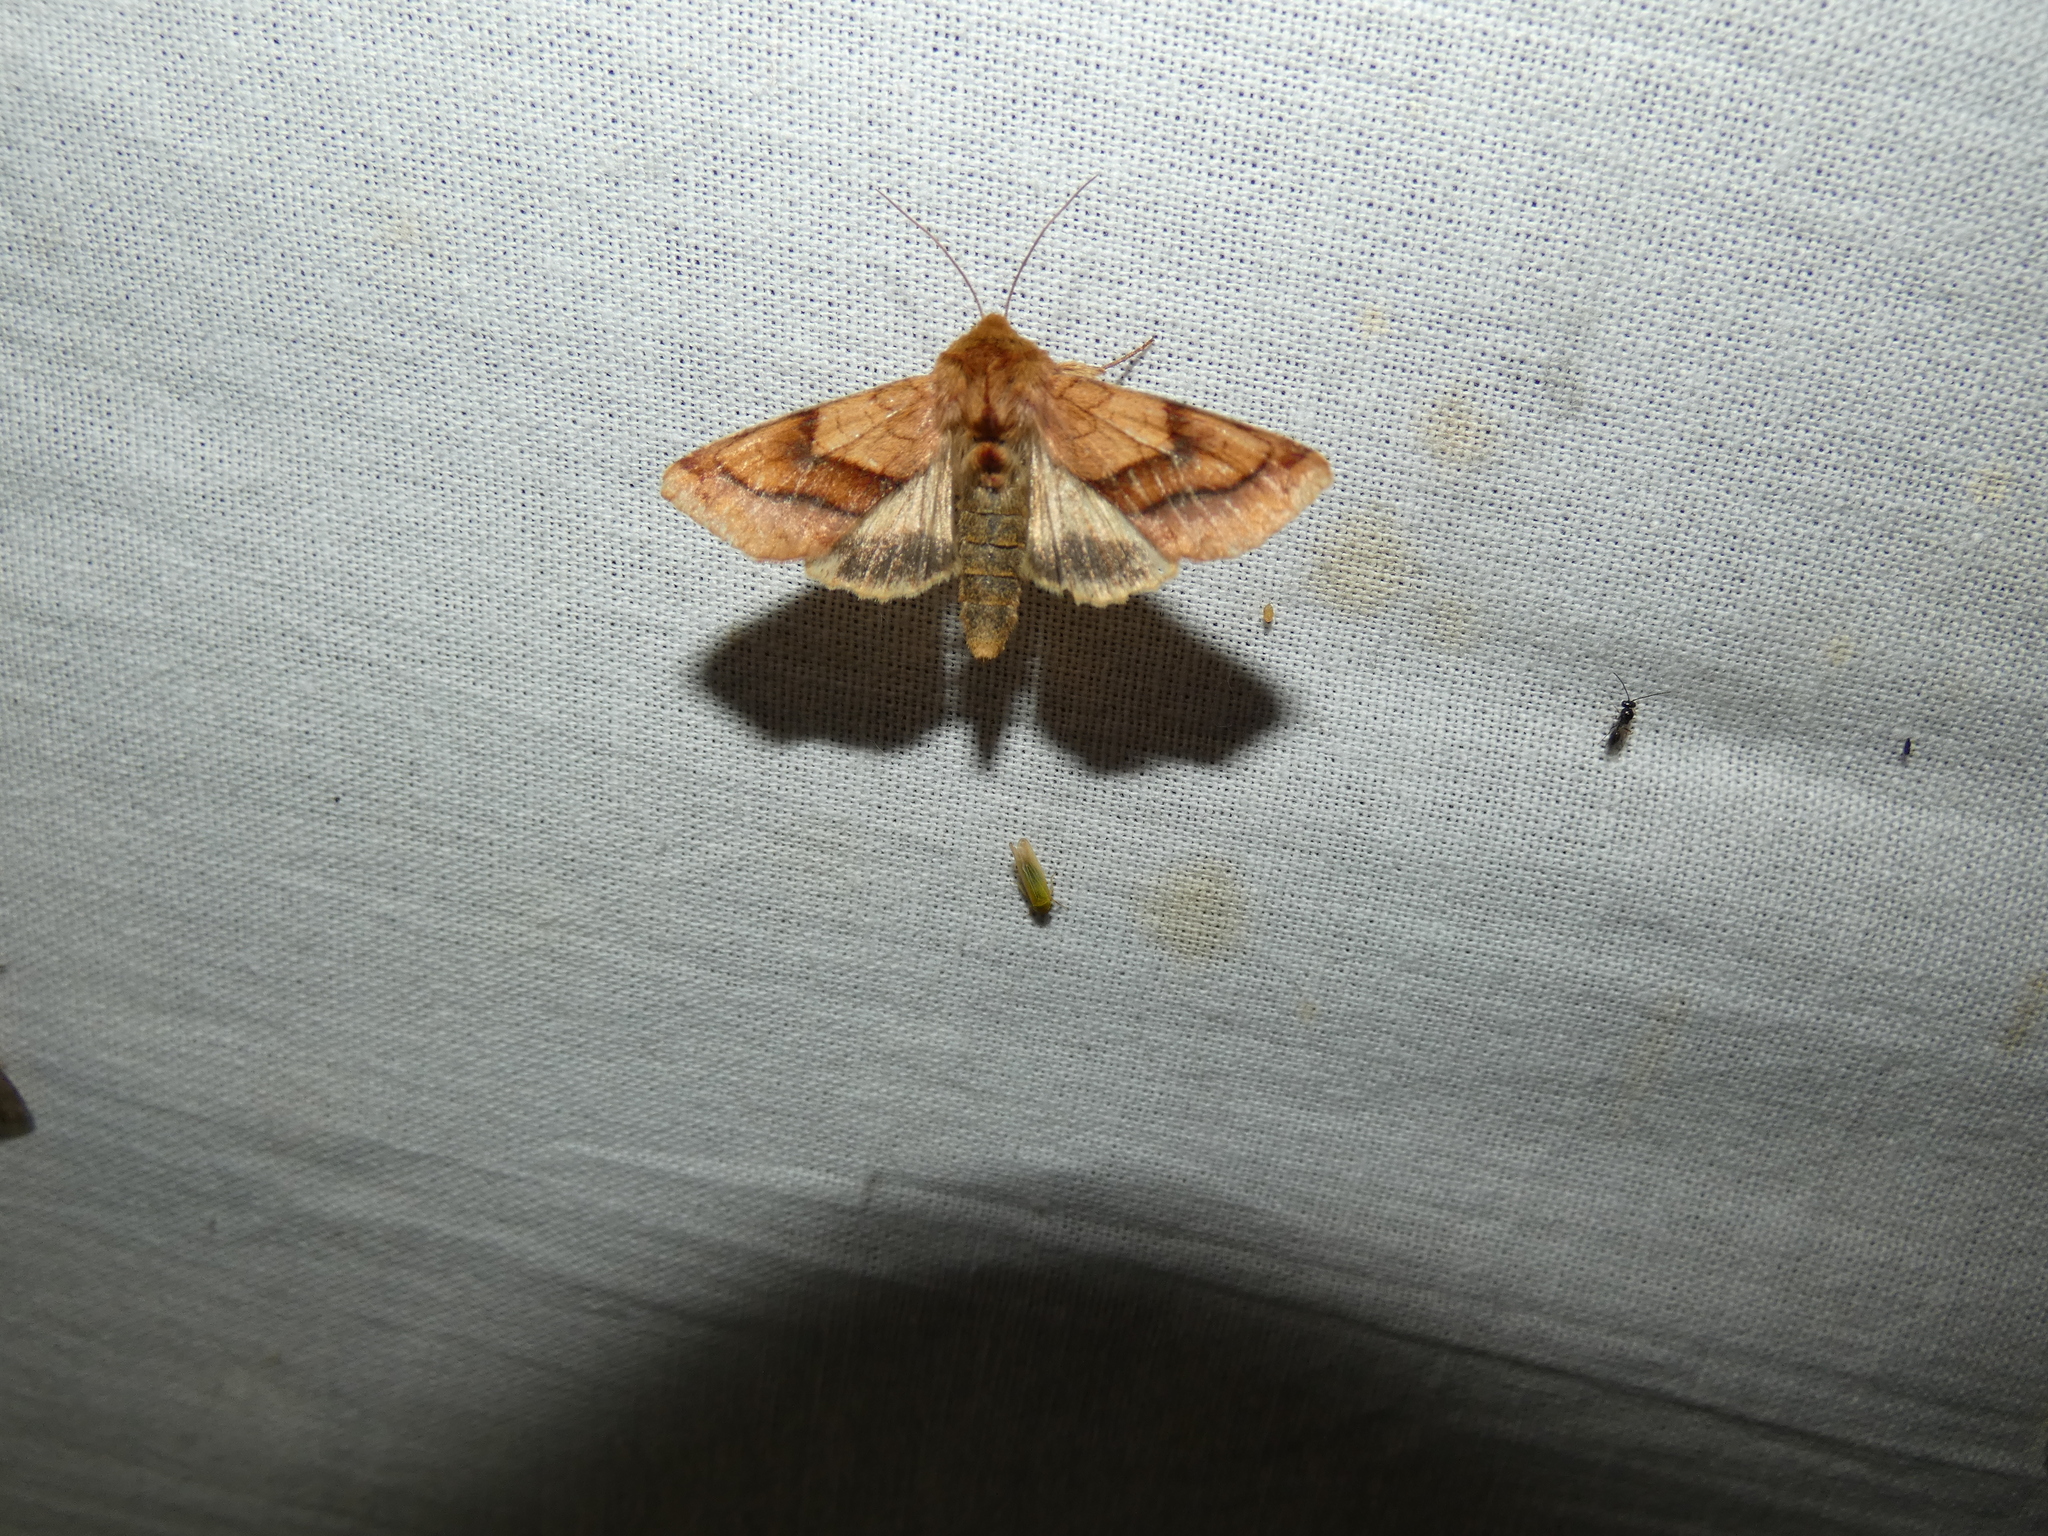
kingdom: Animalia
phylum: Arthropoda
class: Insecta
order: Lepidoptera
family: Noctuidae
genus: Pyrrhia
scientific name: Pyrrhia exprimens
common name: Purple-lined sallow
